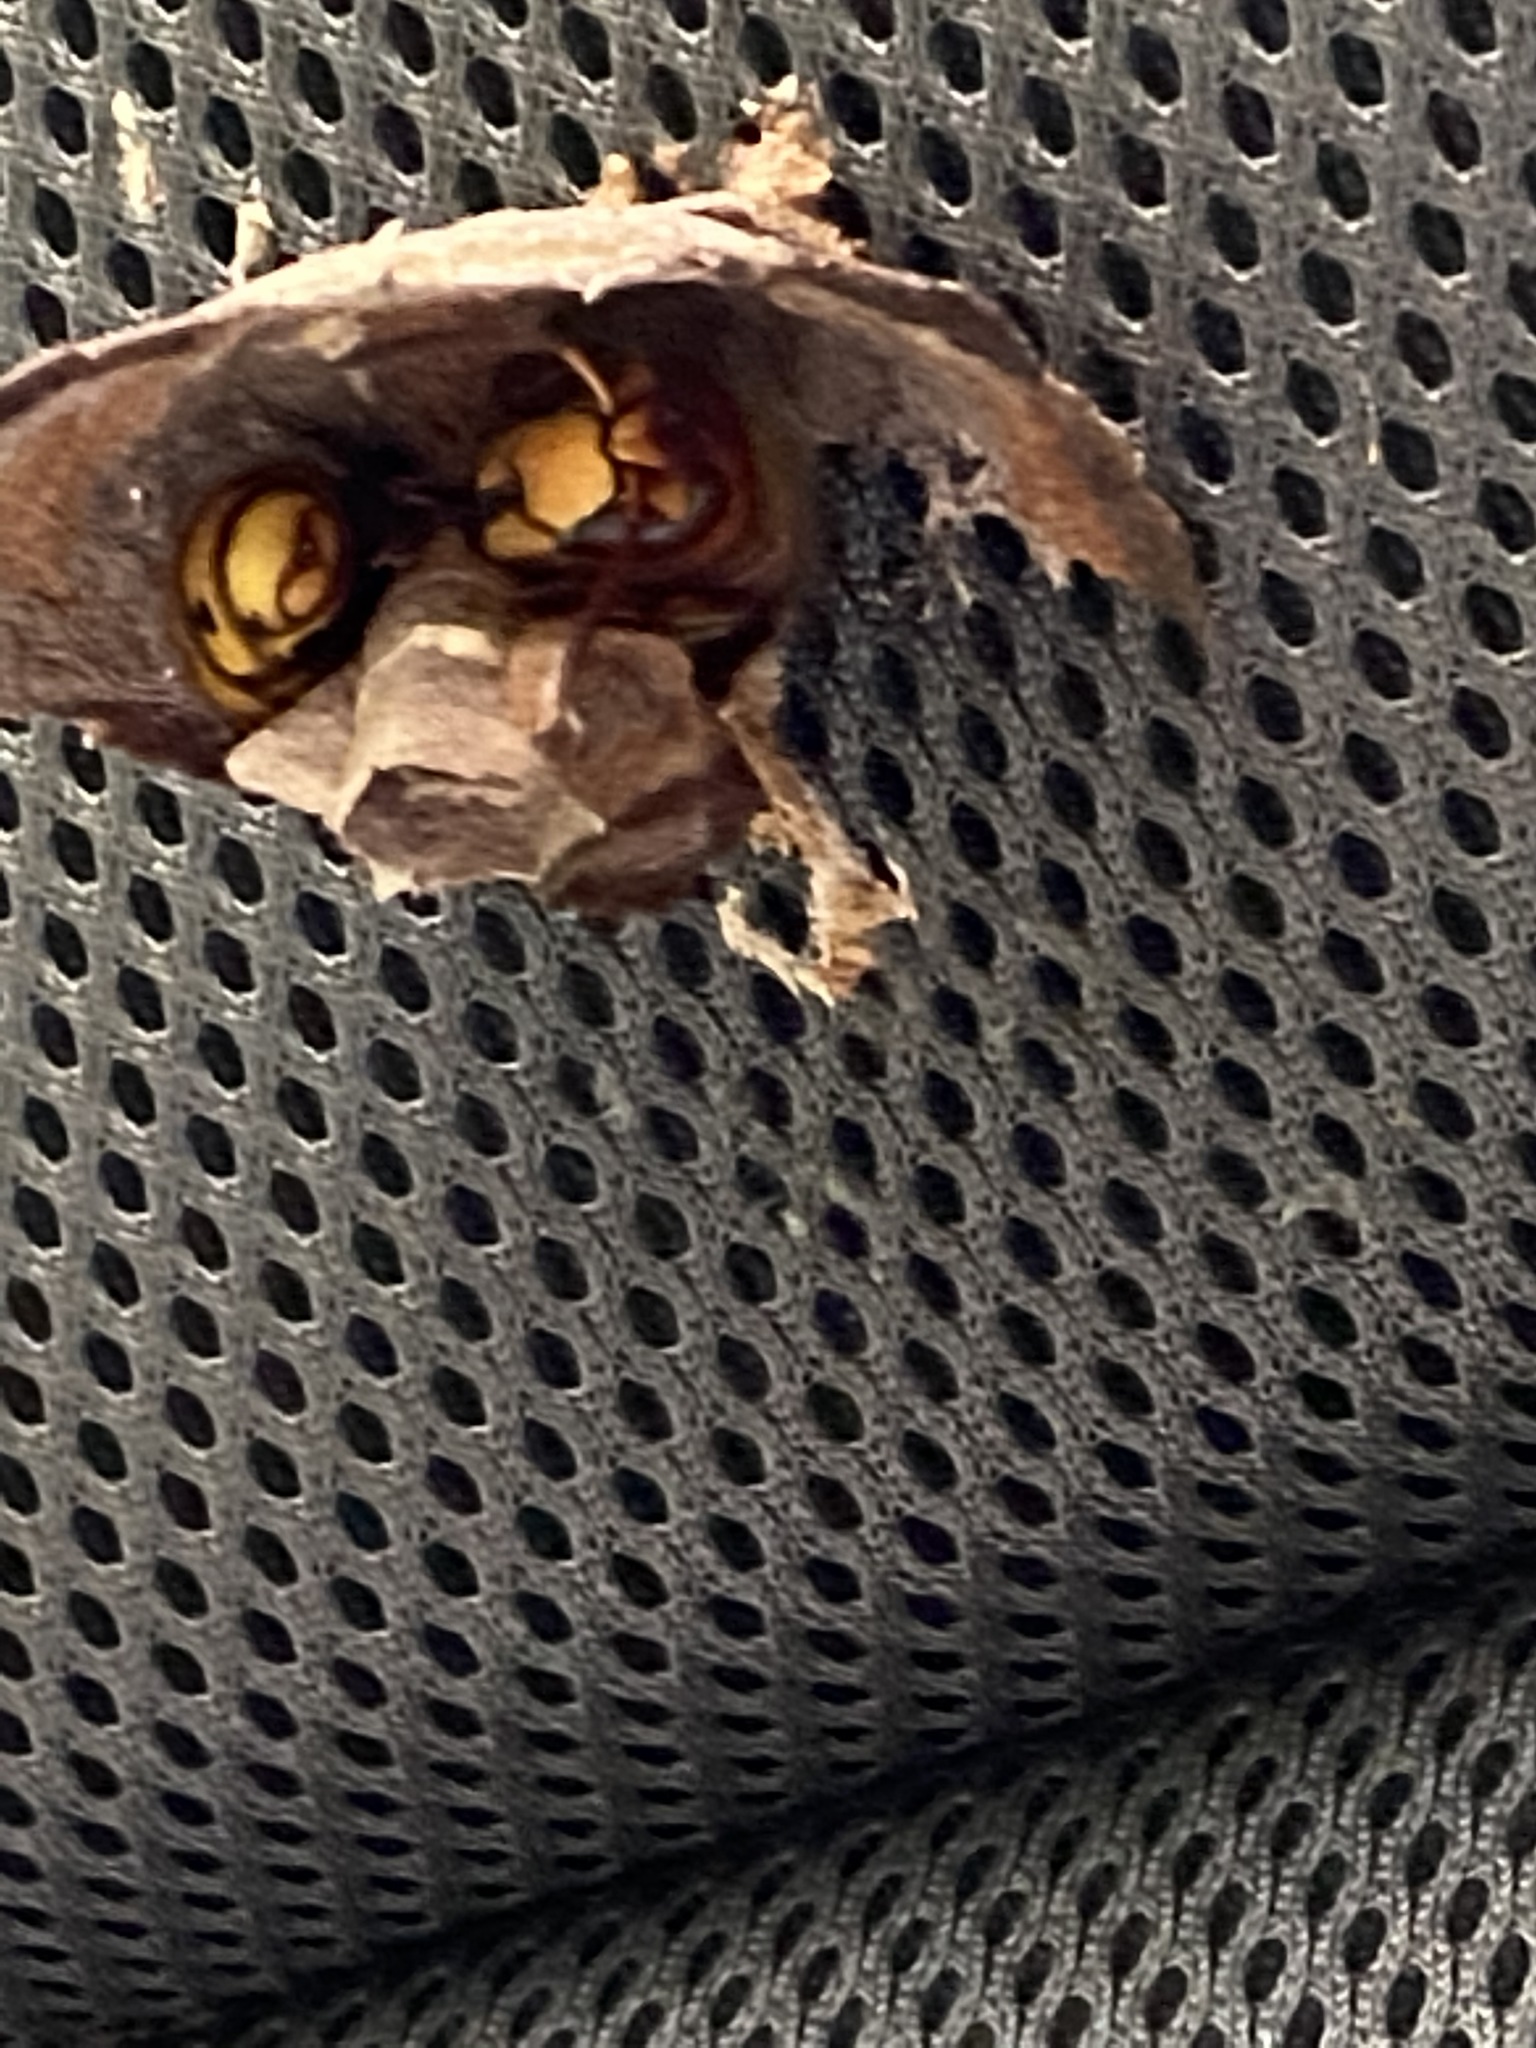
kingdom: Animalia
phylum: Arthropoda
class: Insecta
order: Hymenoptera
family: Vespidae
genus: Vespa
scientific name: Vespa crabro
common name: Hornet
